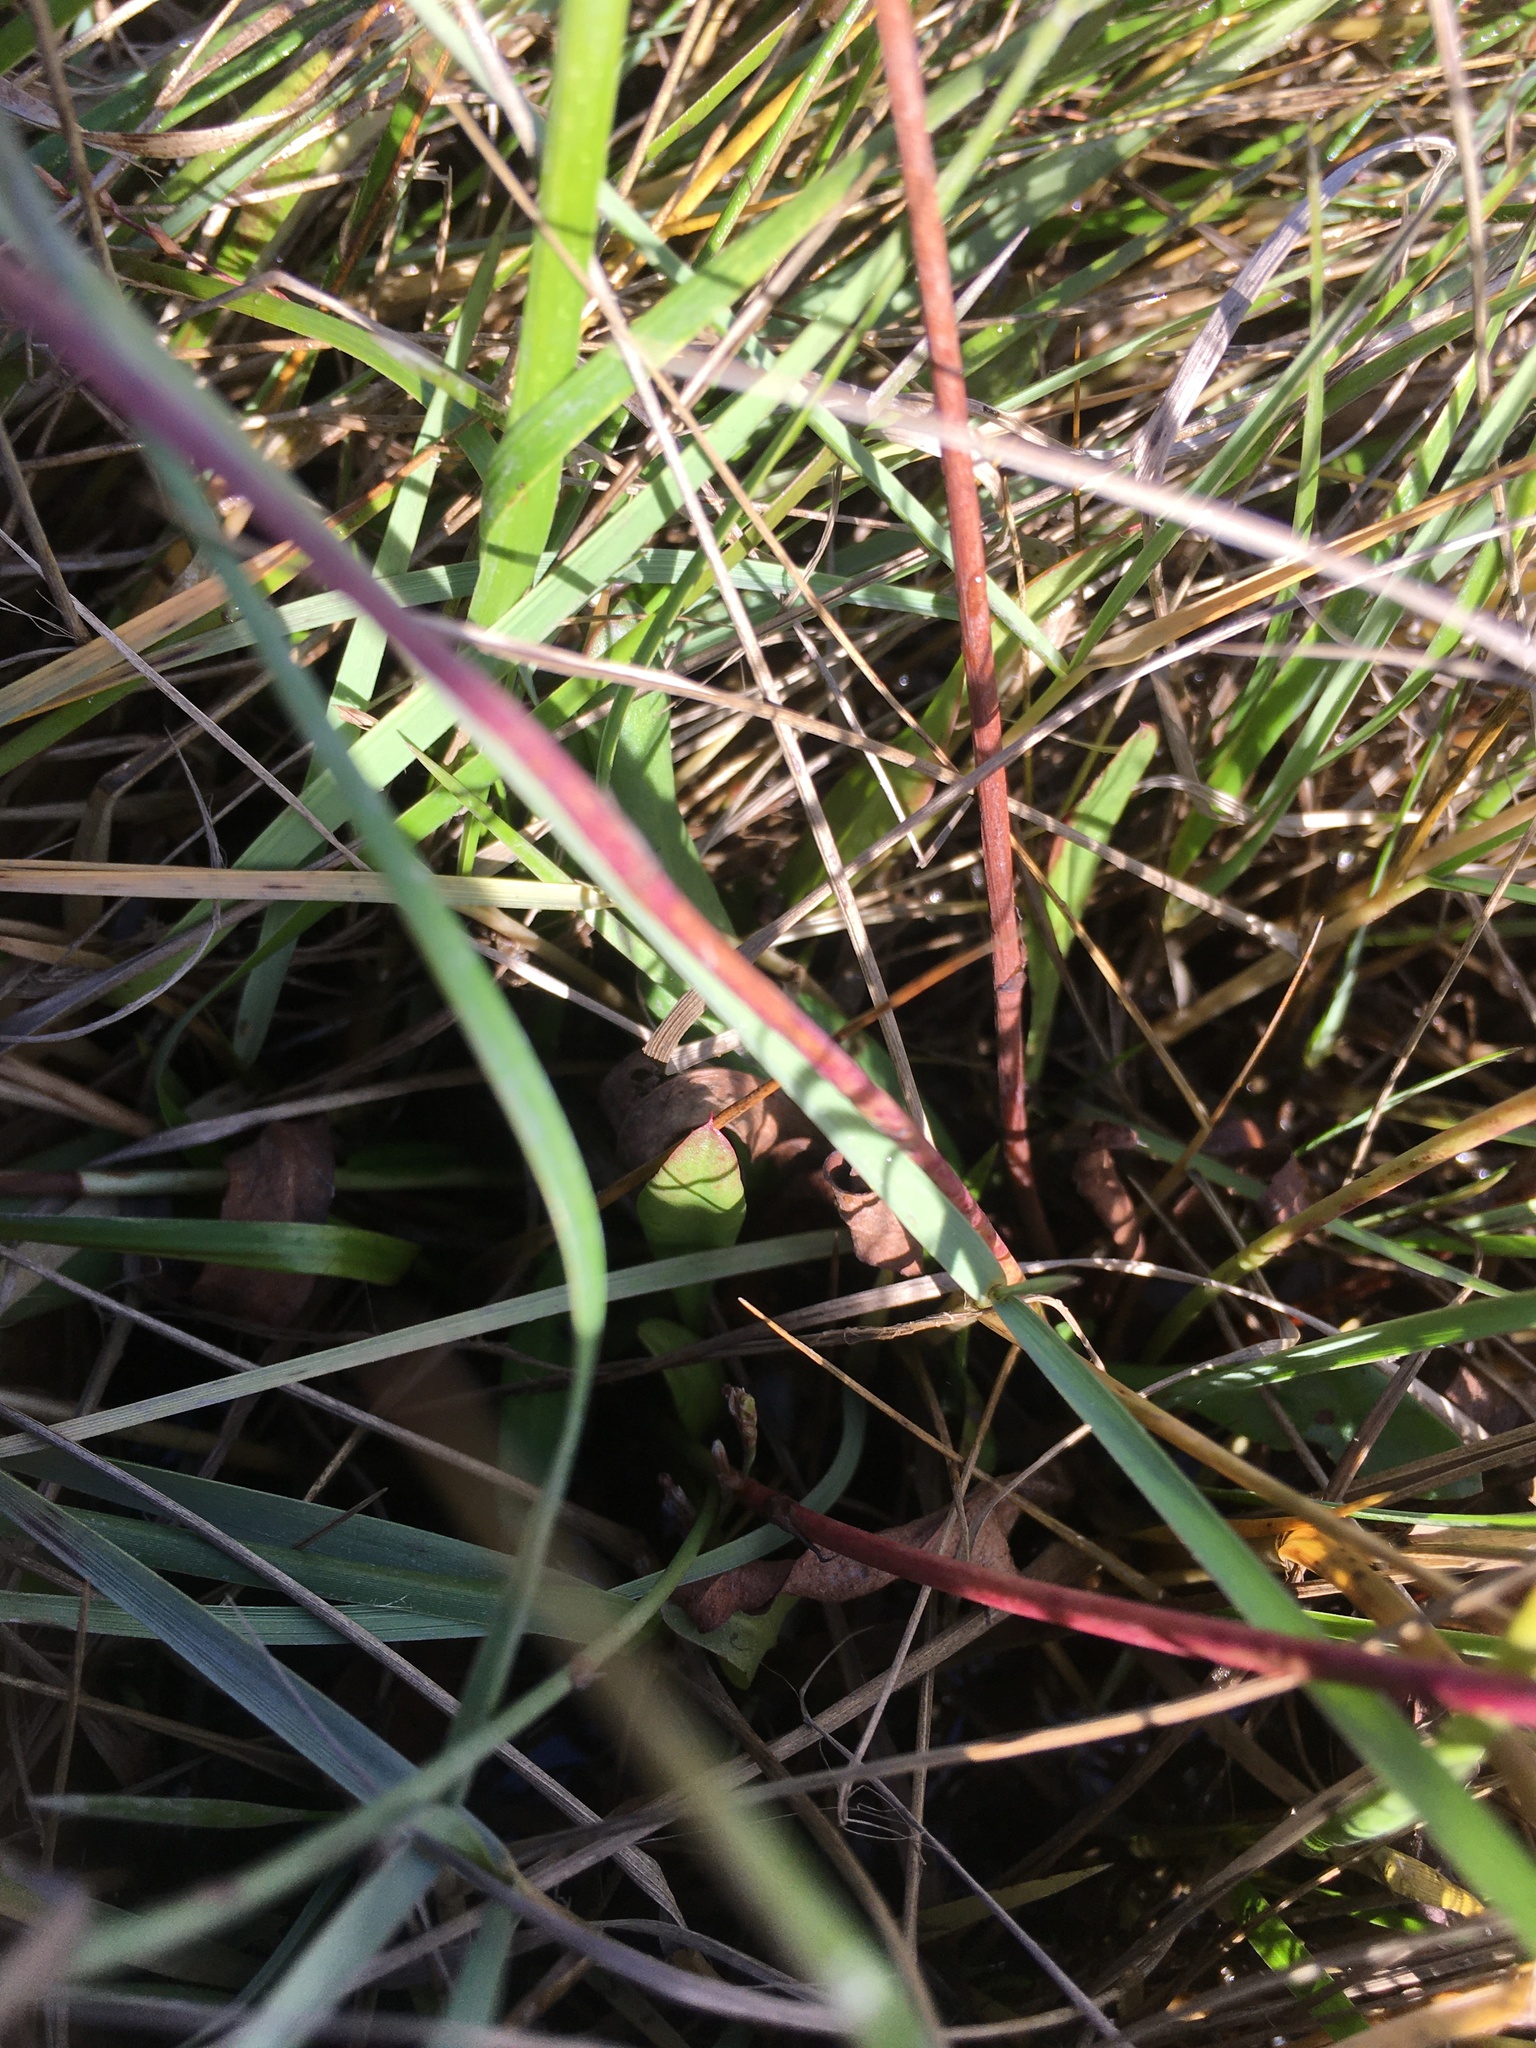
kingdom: Plantae
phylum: Tracheophyta
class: Magnoliopsida
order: Caryophyllales
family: Plumbaginaceae
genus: Limonium
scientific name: Limonium carolinianum
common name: Carolina sea lavender
